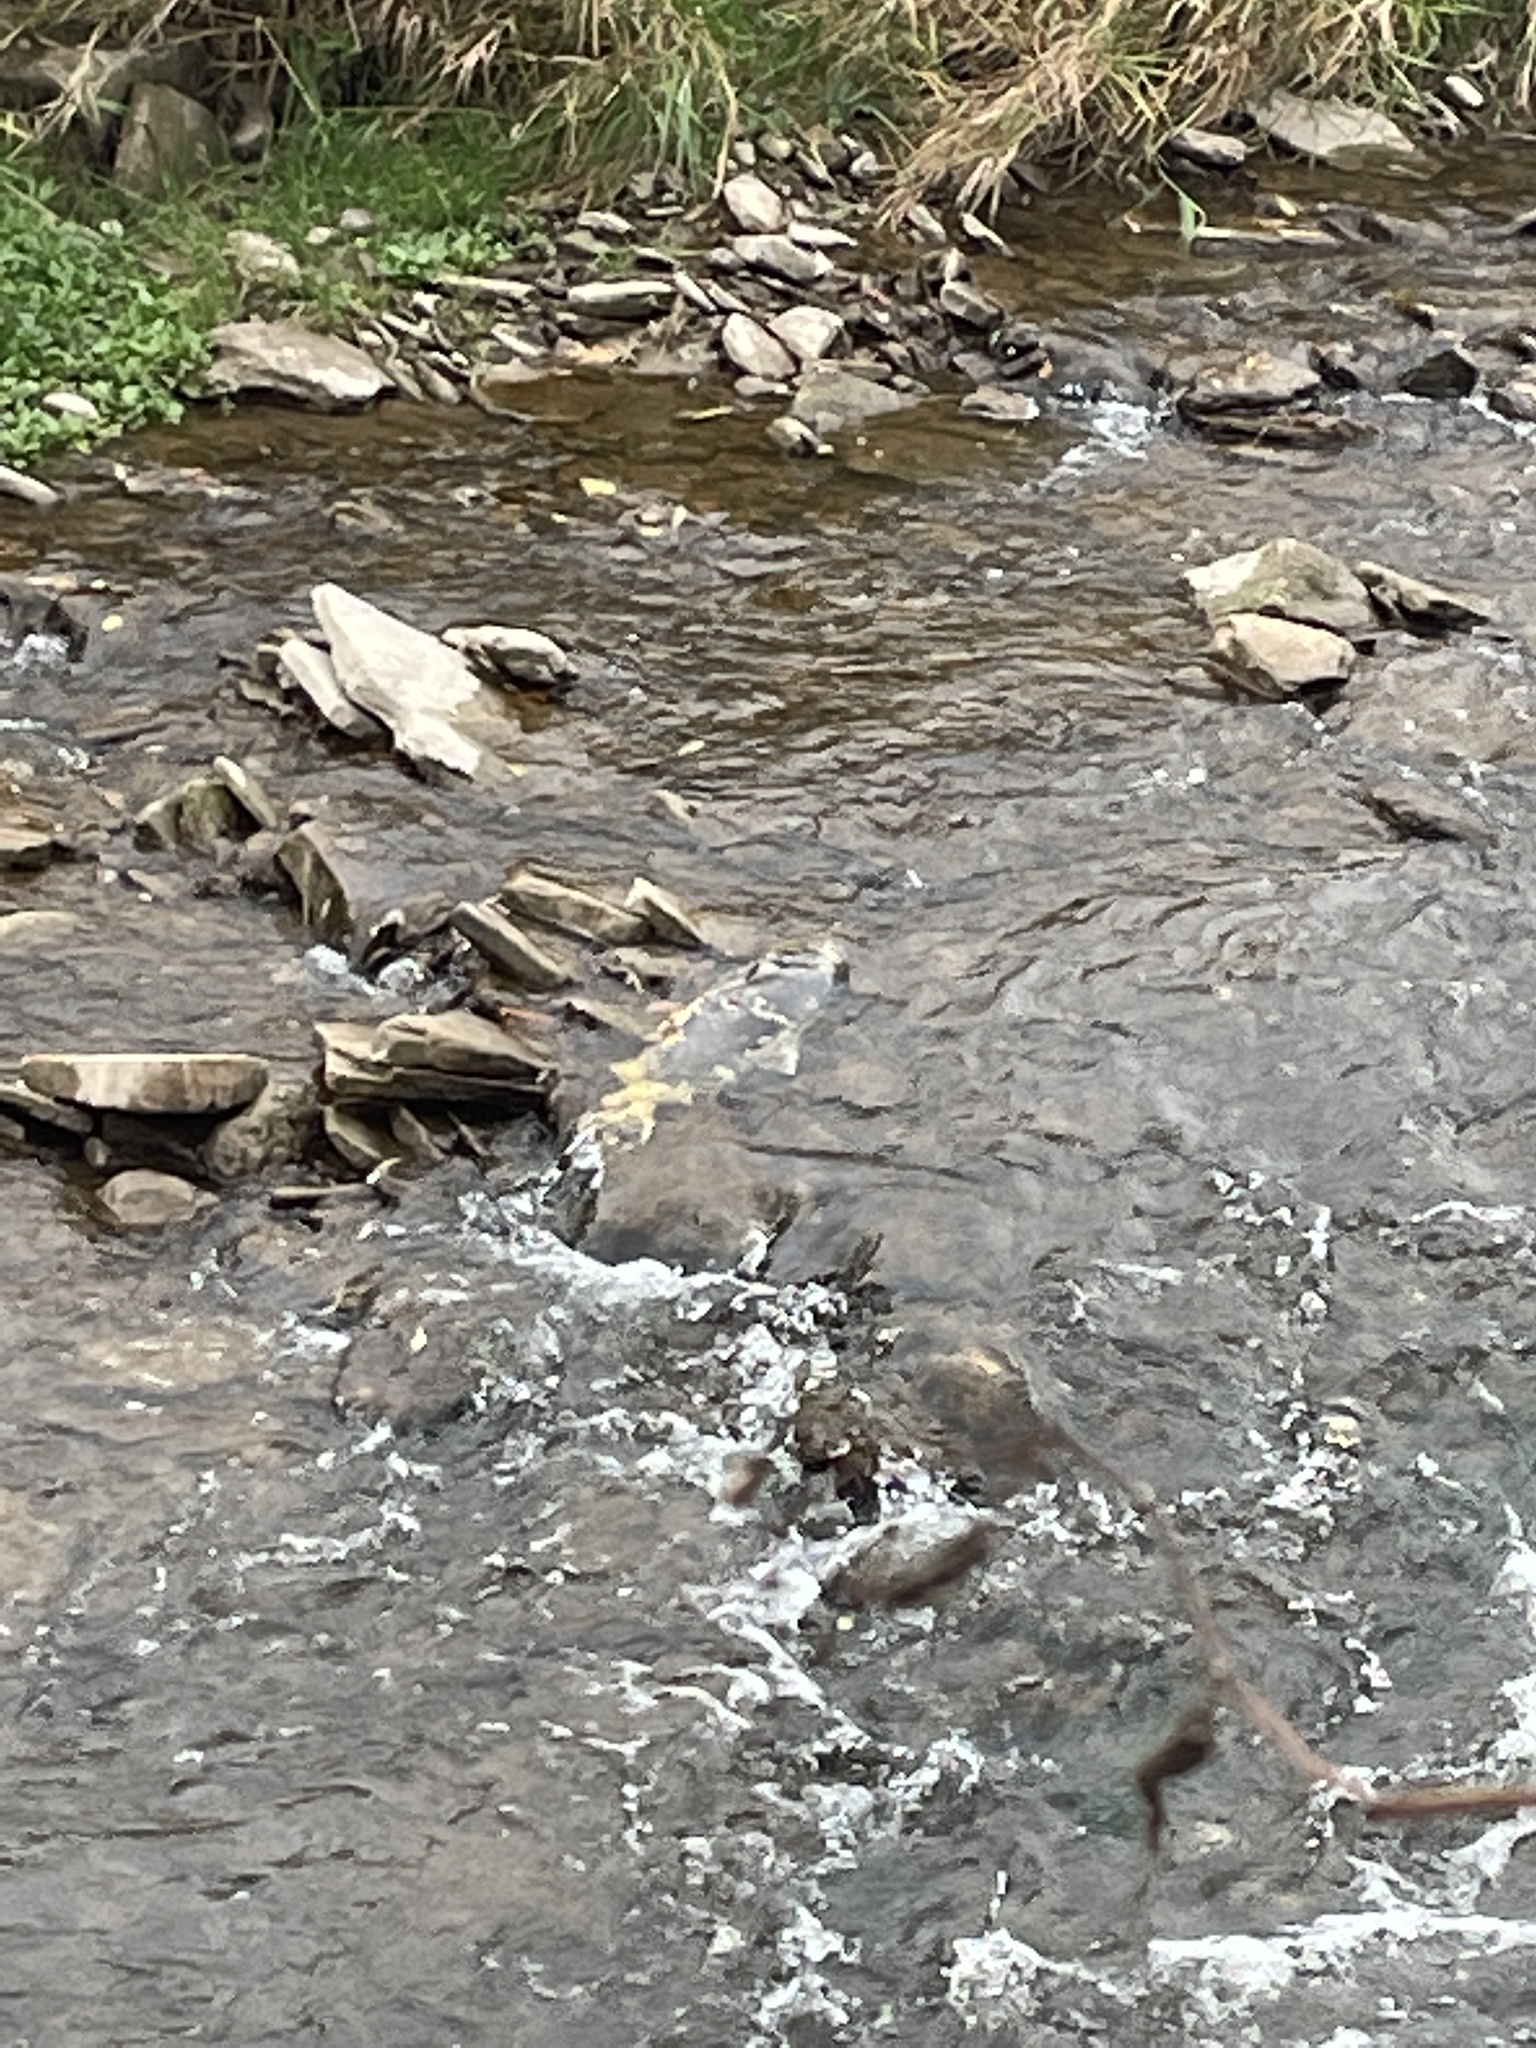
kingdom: Animalia
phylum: Chordata
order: Salmoniformes
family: Salmonidae
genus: Oncorhynchus
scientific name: Oncorhynchus tshawytscha
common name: Chinook salmon
